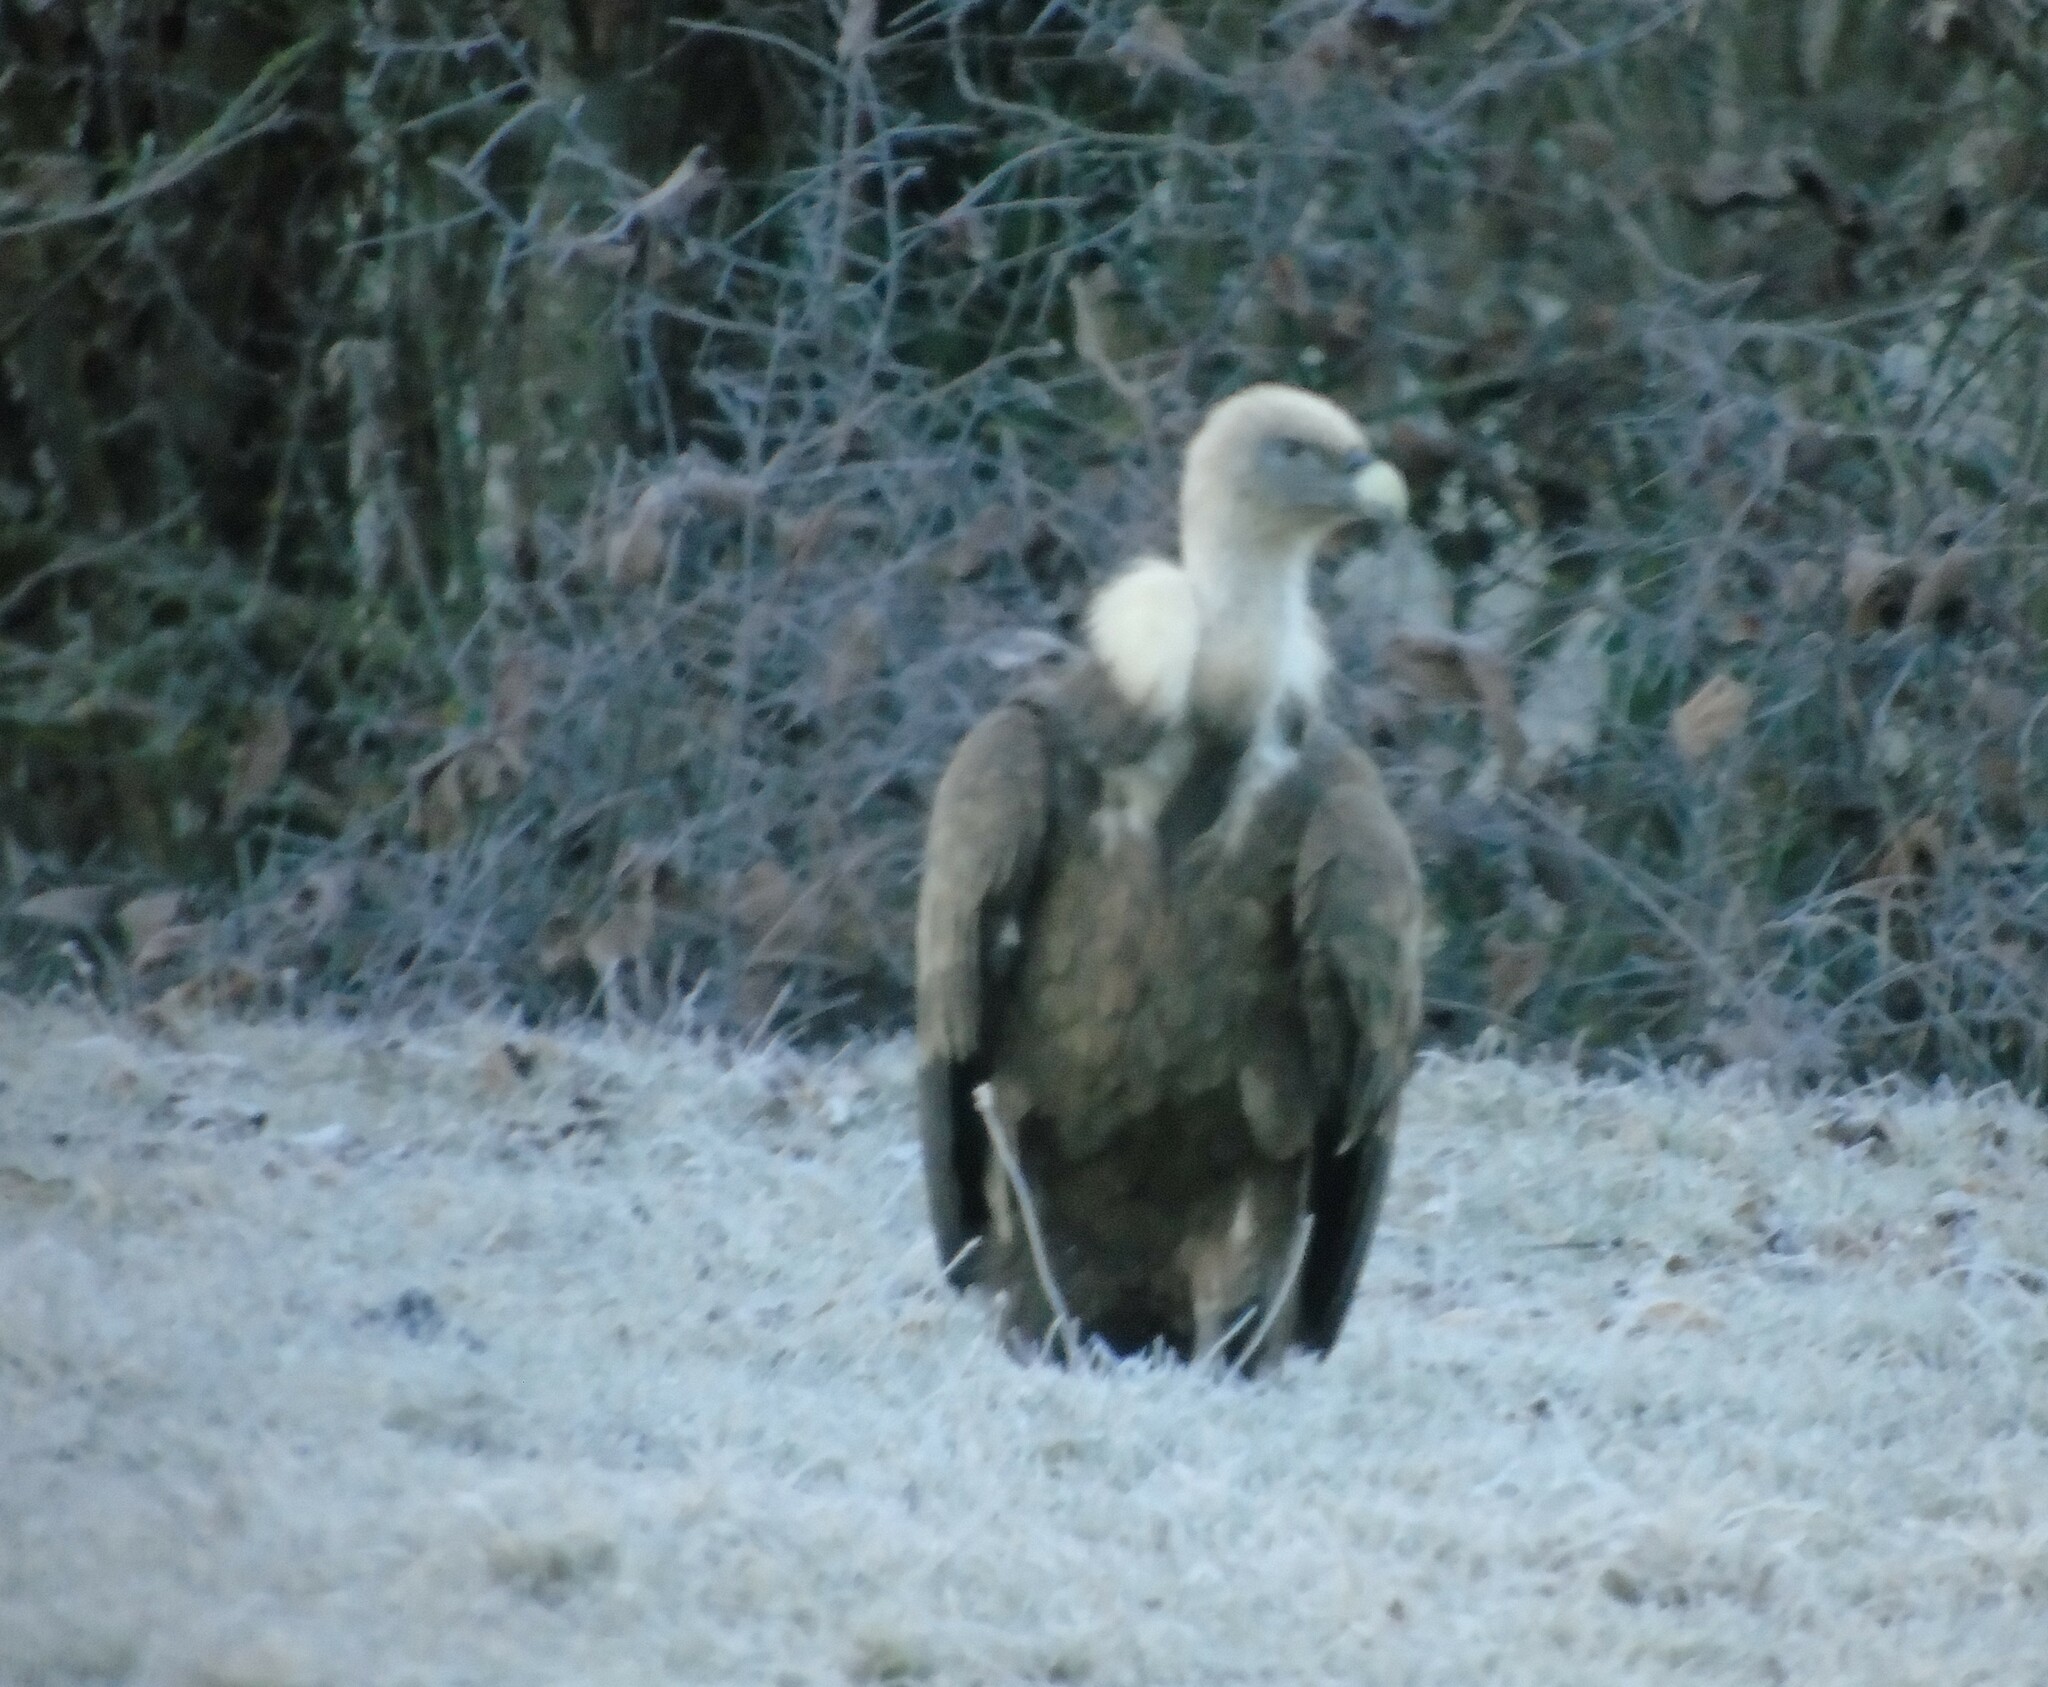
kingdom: Animalia
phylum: Chordata
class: Aves
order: Accipitriformes
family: Accipitridae
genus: Gyps
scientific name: Gyps fulvus
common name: Griffon vulture
